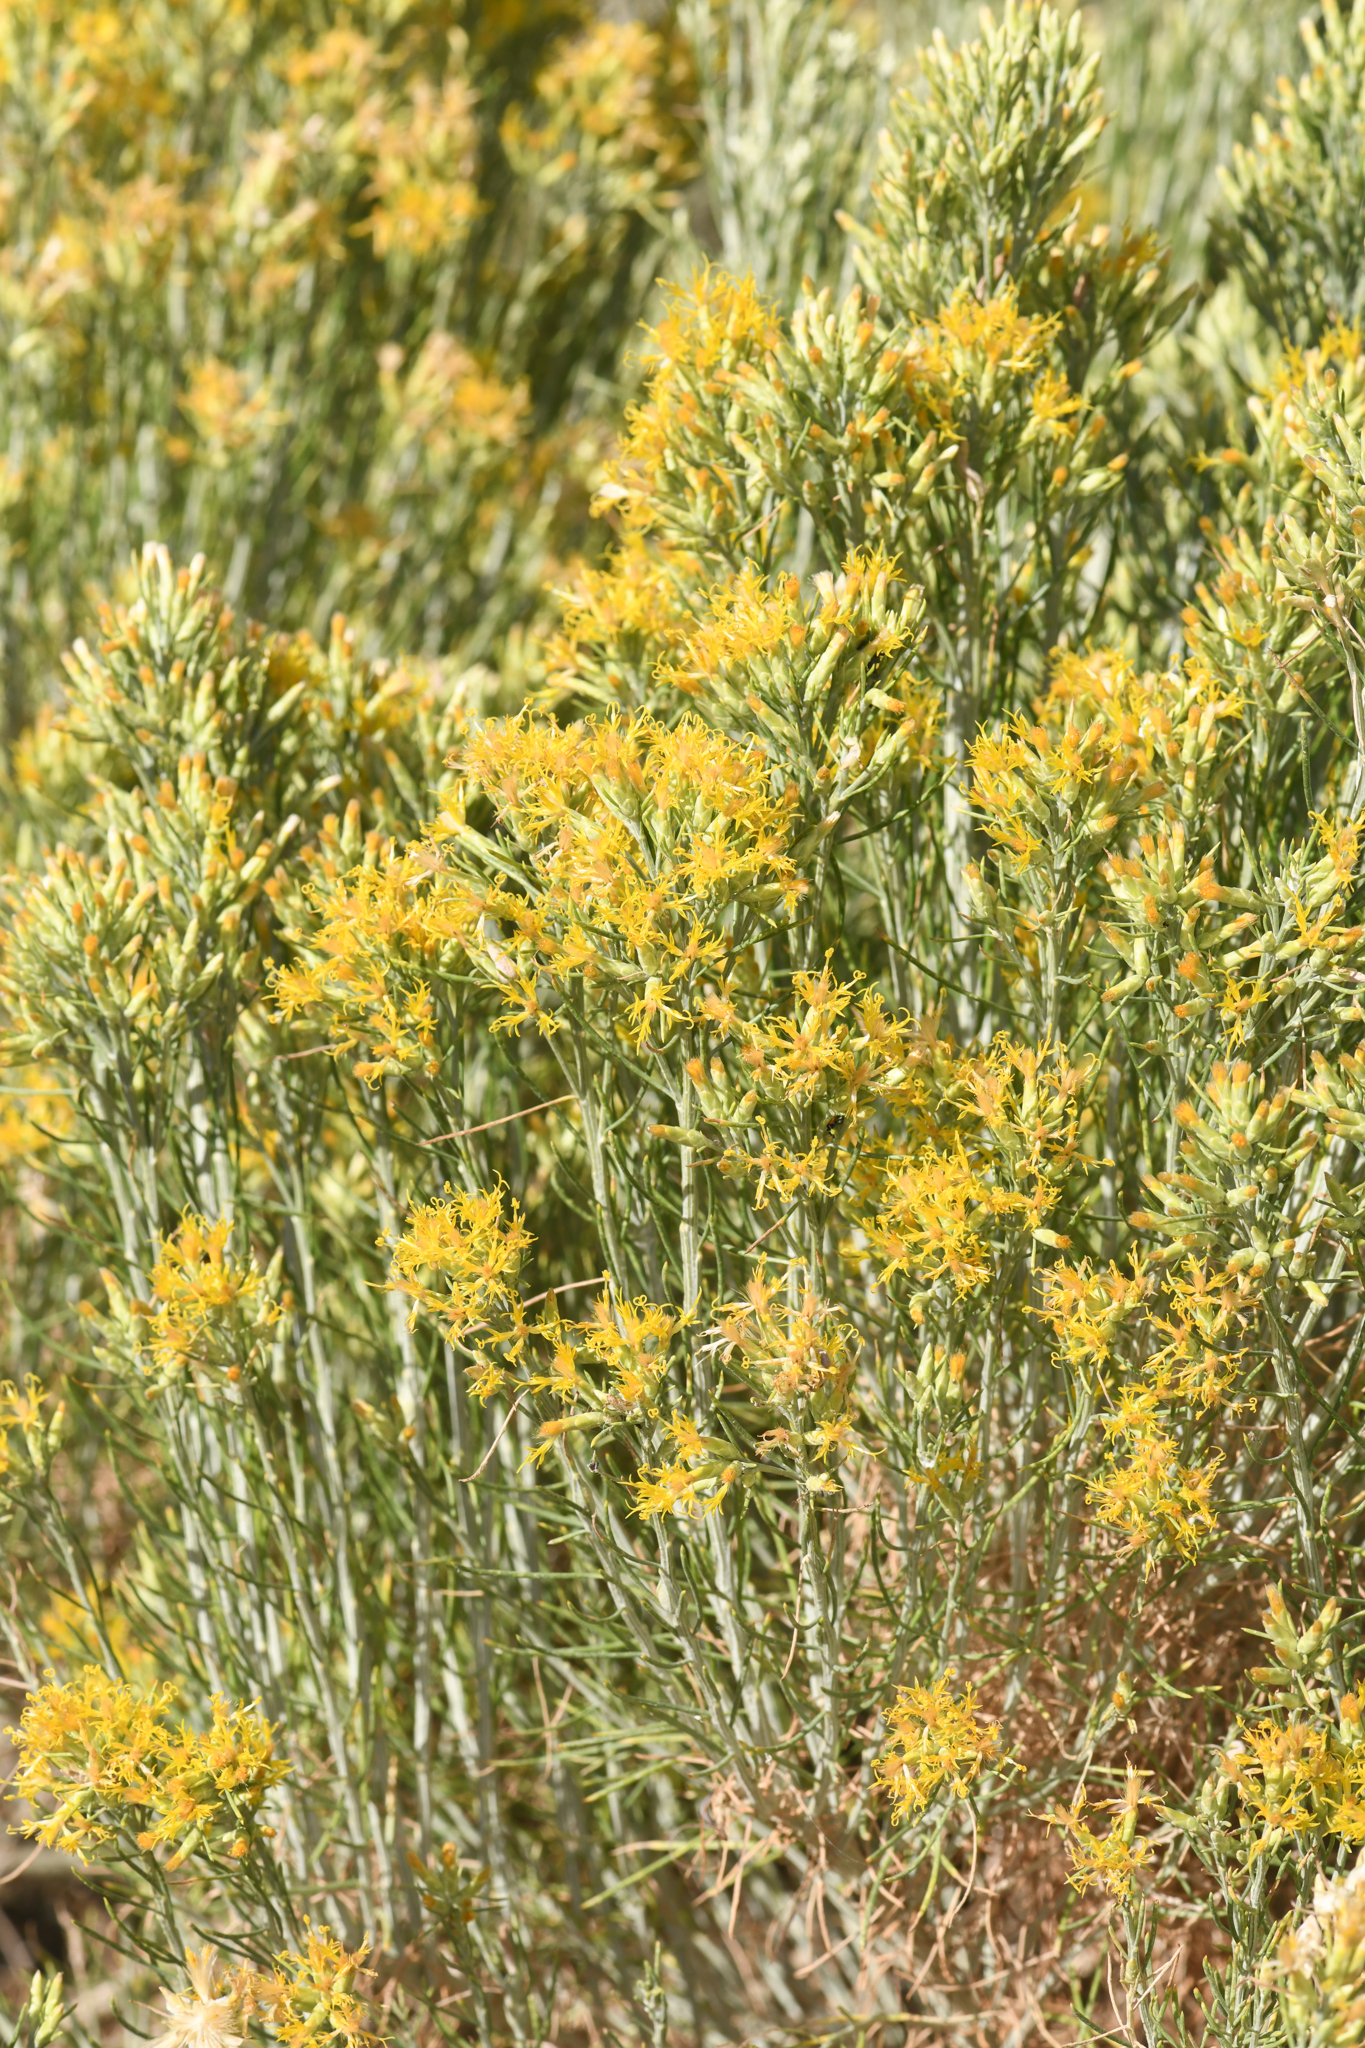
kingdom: Plantae
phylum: Tracheophyta
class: Magnoliopsida
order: Asterales
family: Asteraceae
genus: Lepidospartum
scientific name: Lepidospartum latisquamum
